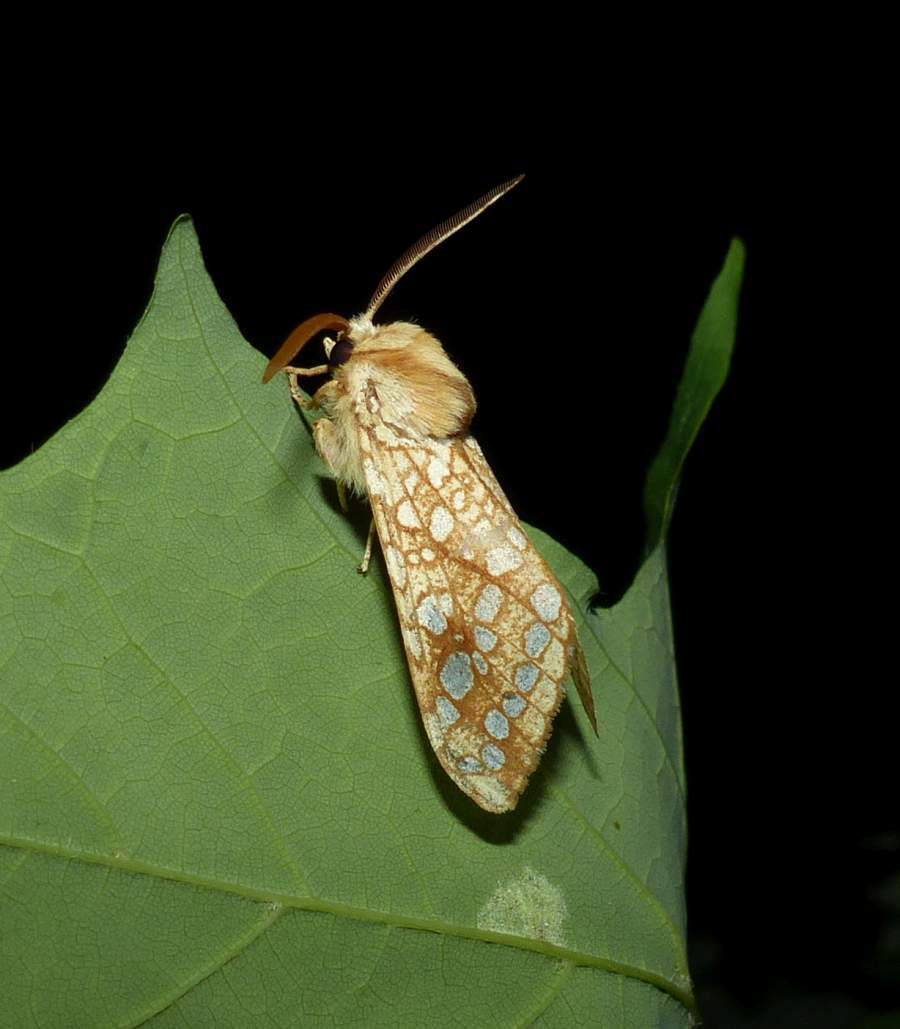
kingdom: Animalia
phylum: Arthropoda
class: Insecta
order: Lepidoptera
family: Erebidae
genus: Lophocampa
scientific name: Lophocampa caryae
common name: Hickory tussock moth
